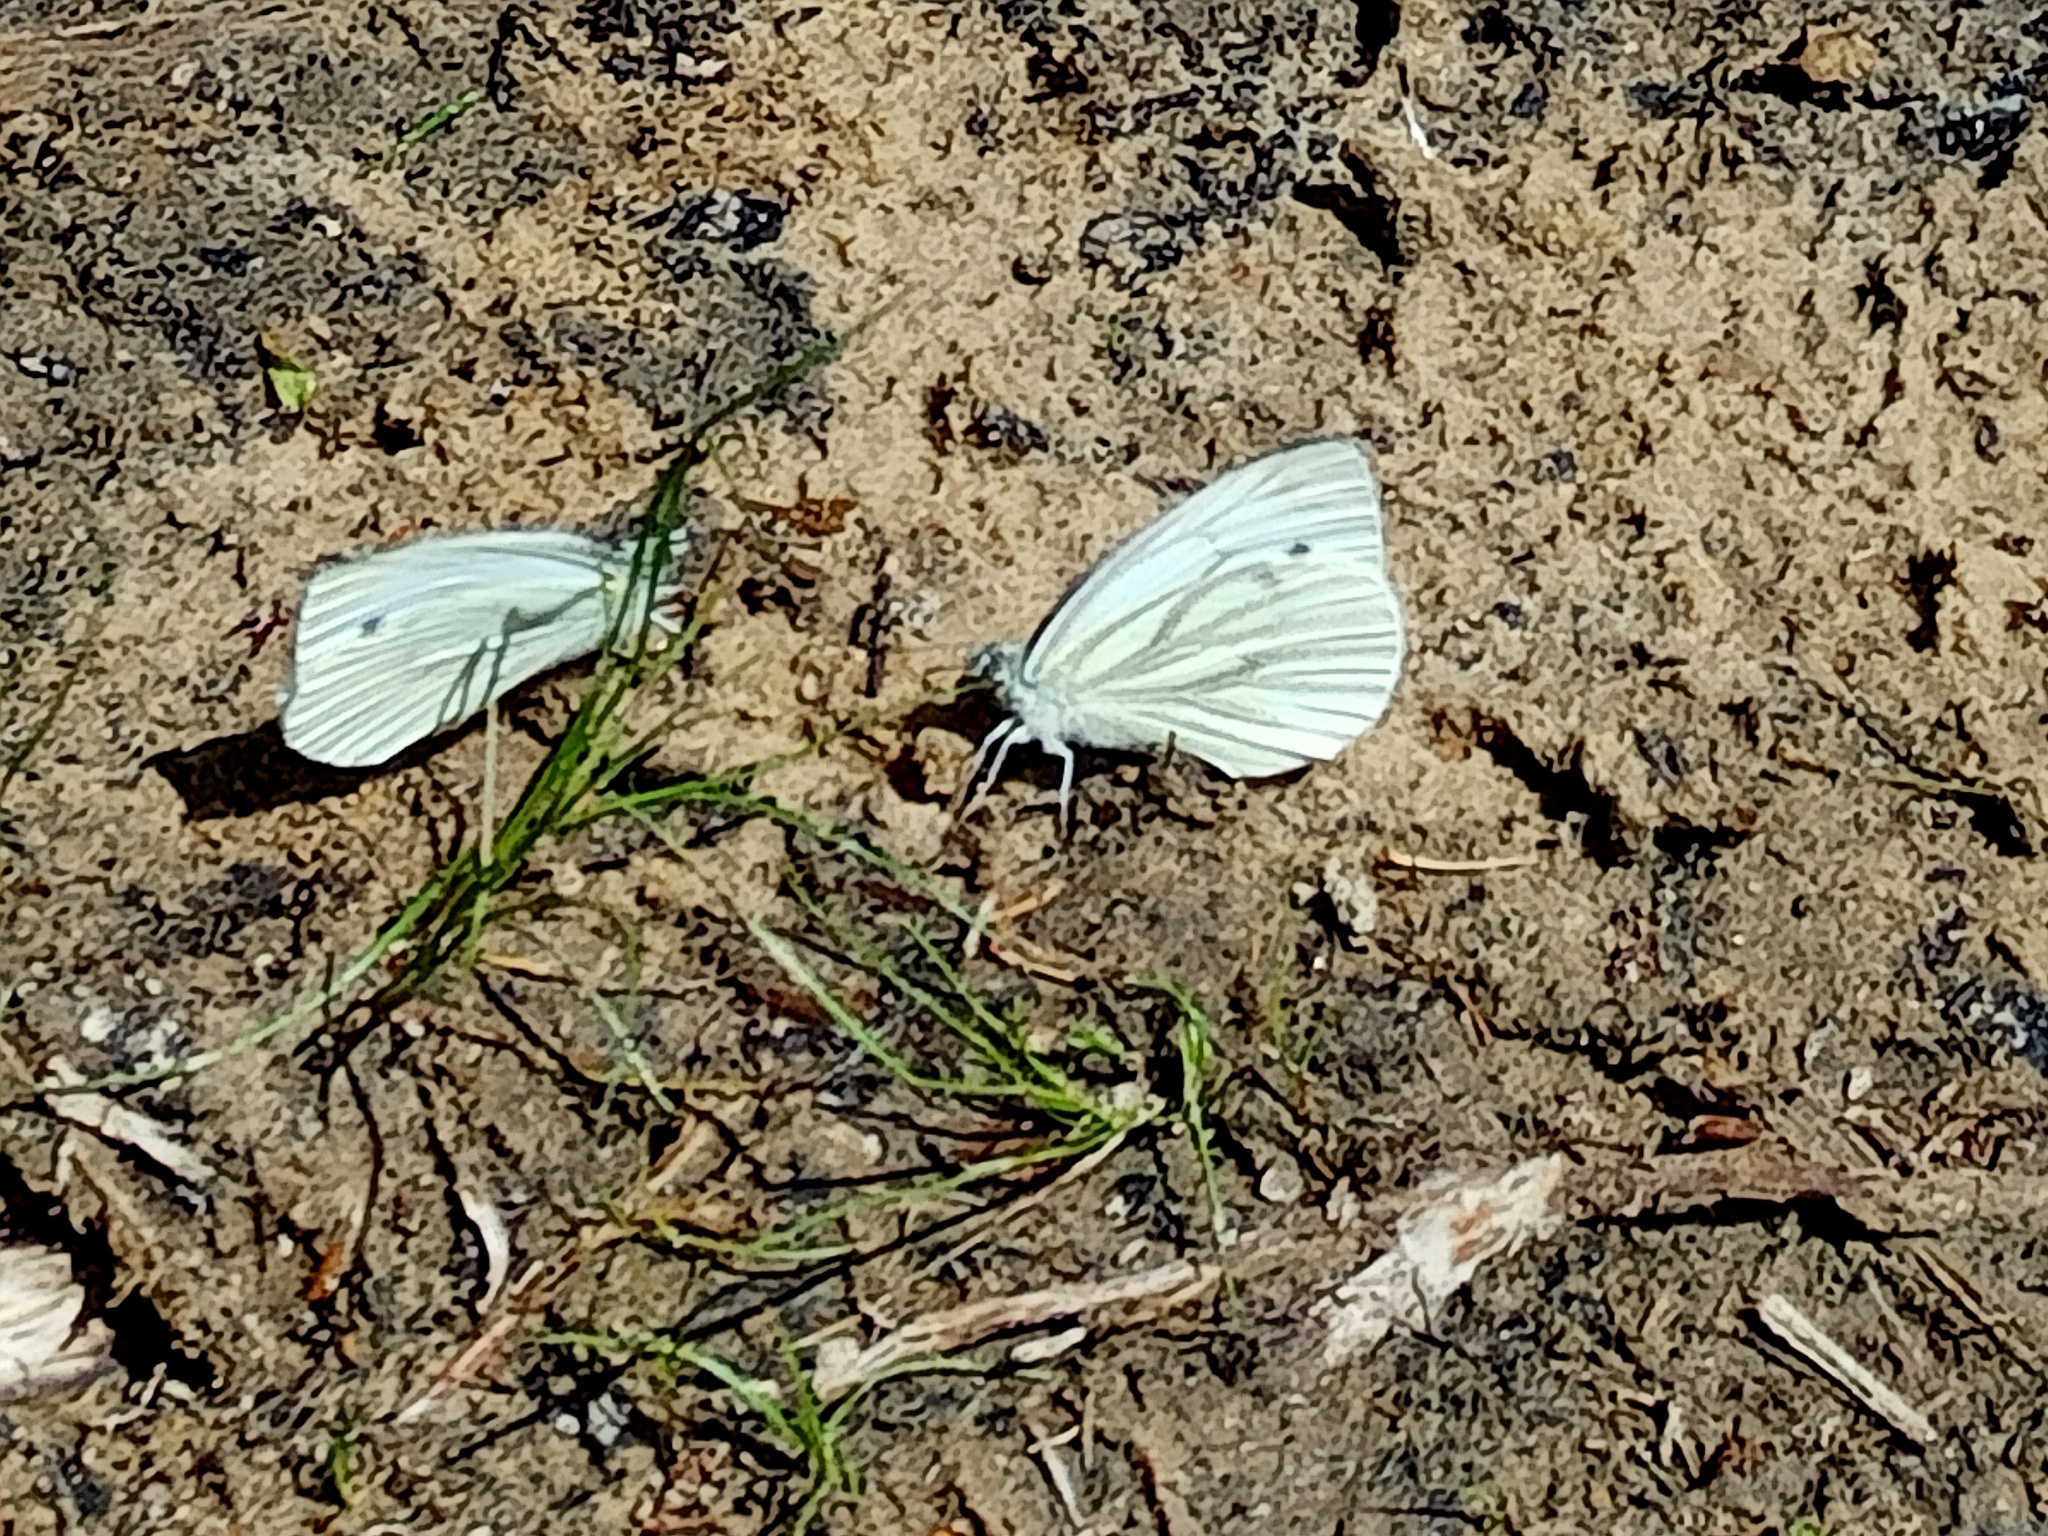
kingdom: Animalia
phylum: Arthropoda
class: Insecta
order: Lepidoptera
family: Pieridae
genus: Pieris
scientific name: Pieris napi
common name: Green-veined white
